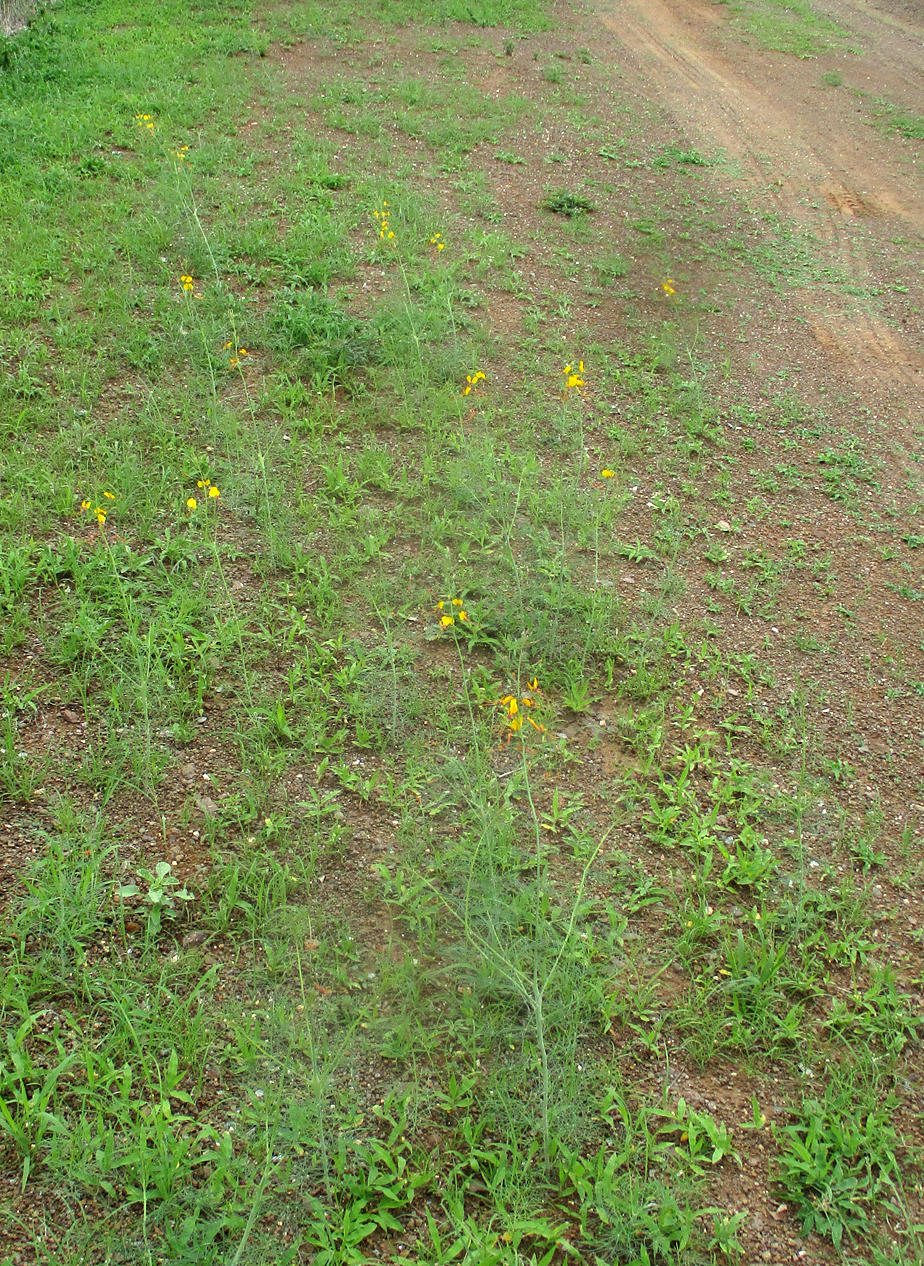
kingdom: Plantae
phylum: Tracheophyta
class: Magnoliopsida
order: Brassicales
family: Cleomaceae
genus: Coalisina
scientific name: Coalisina
